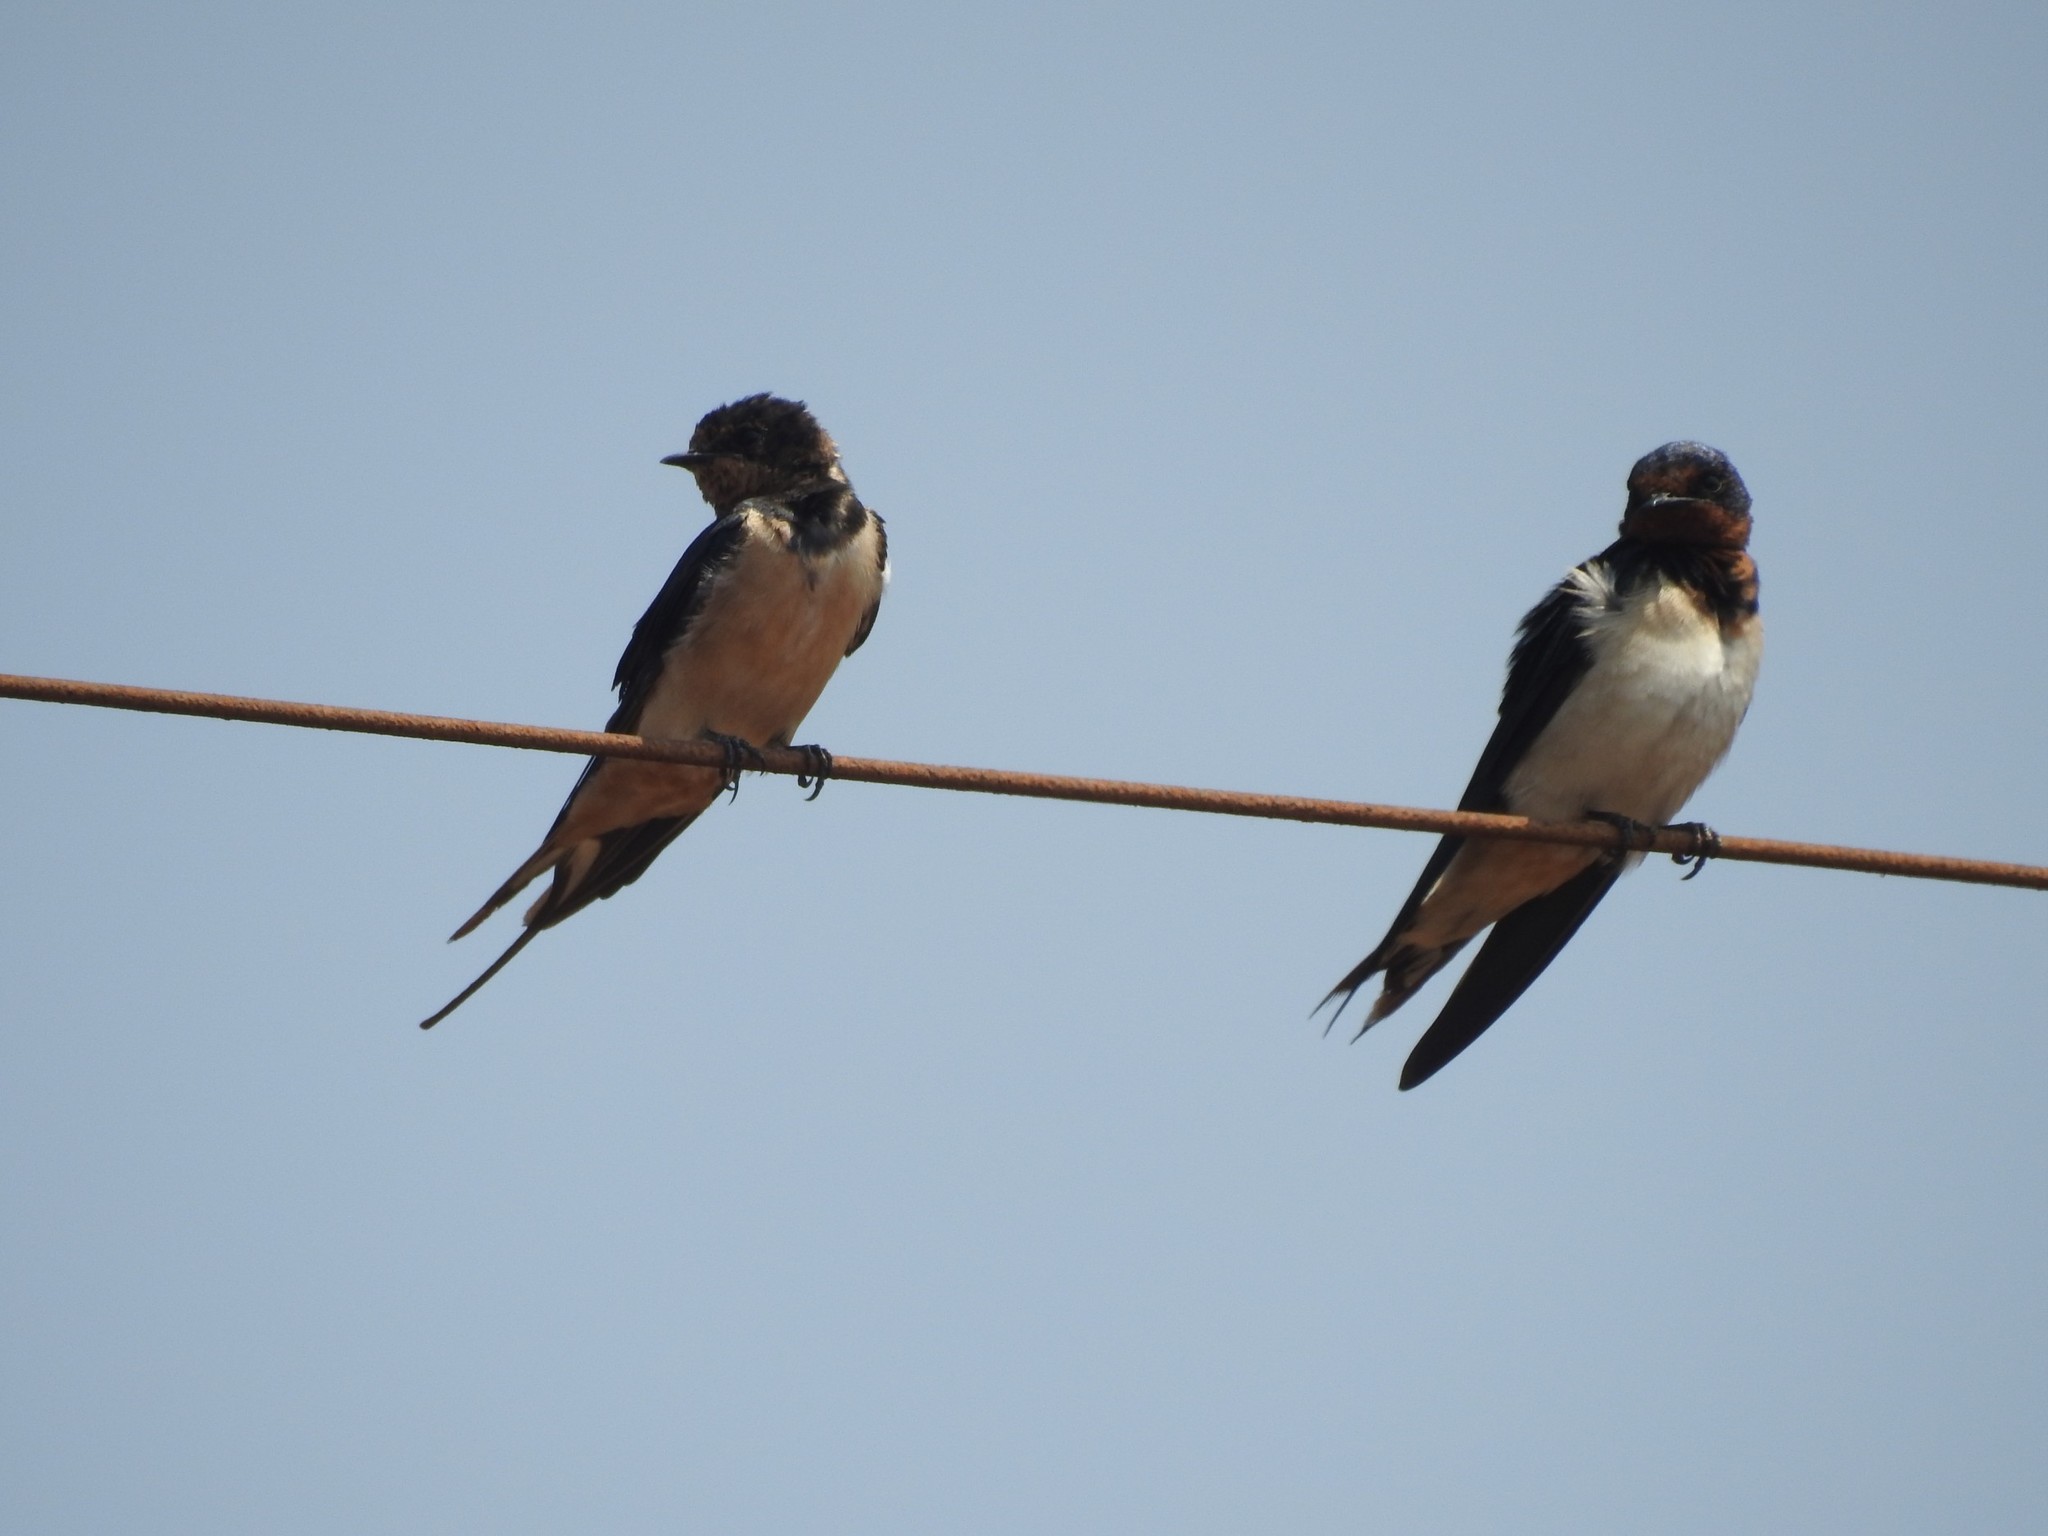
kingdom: Animalia
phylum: Chordata
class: Aves
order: Passeriformes
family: Hirundinidae
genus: Hirundo
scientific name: Hirundo rustica
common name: Barn swallow
